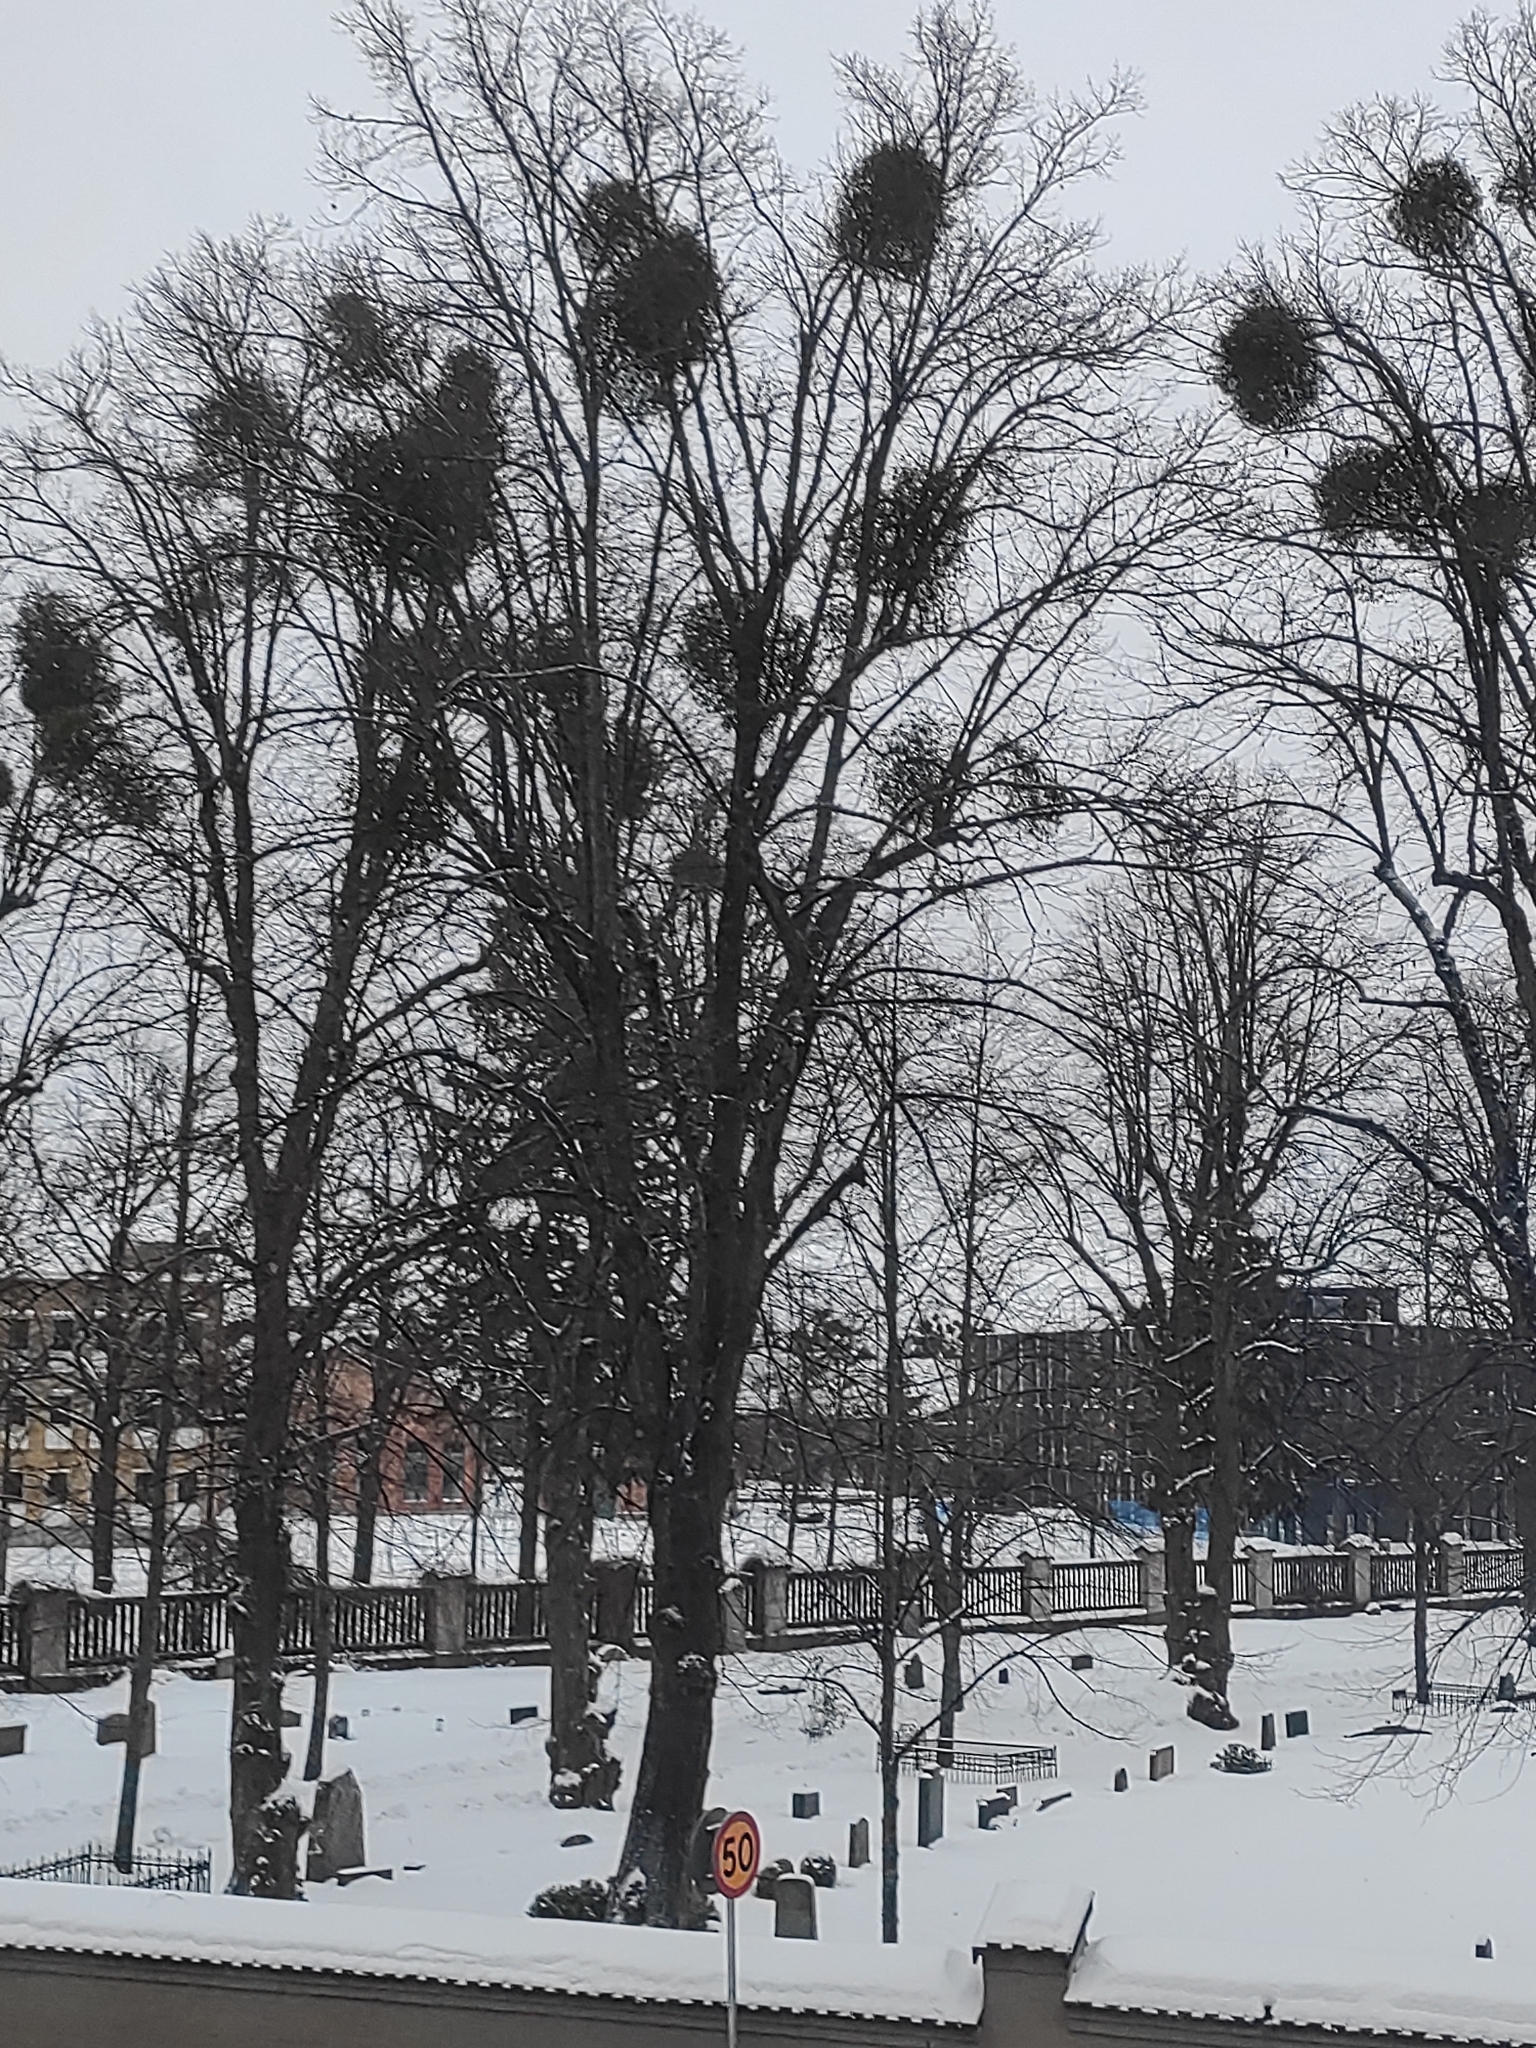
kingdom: Plantae
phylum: Tracheophyta
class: Magnoliopsida
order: Santalales
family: Viscaceae
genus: Viscum
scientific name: Viscum album
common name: Mistletoe
